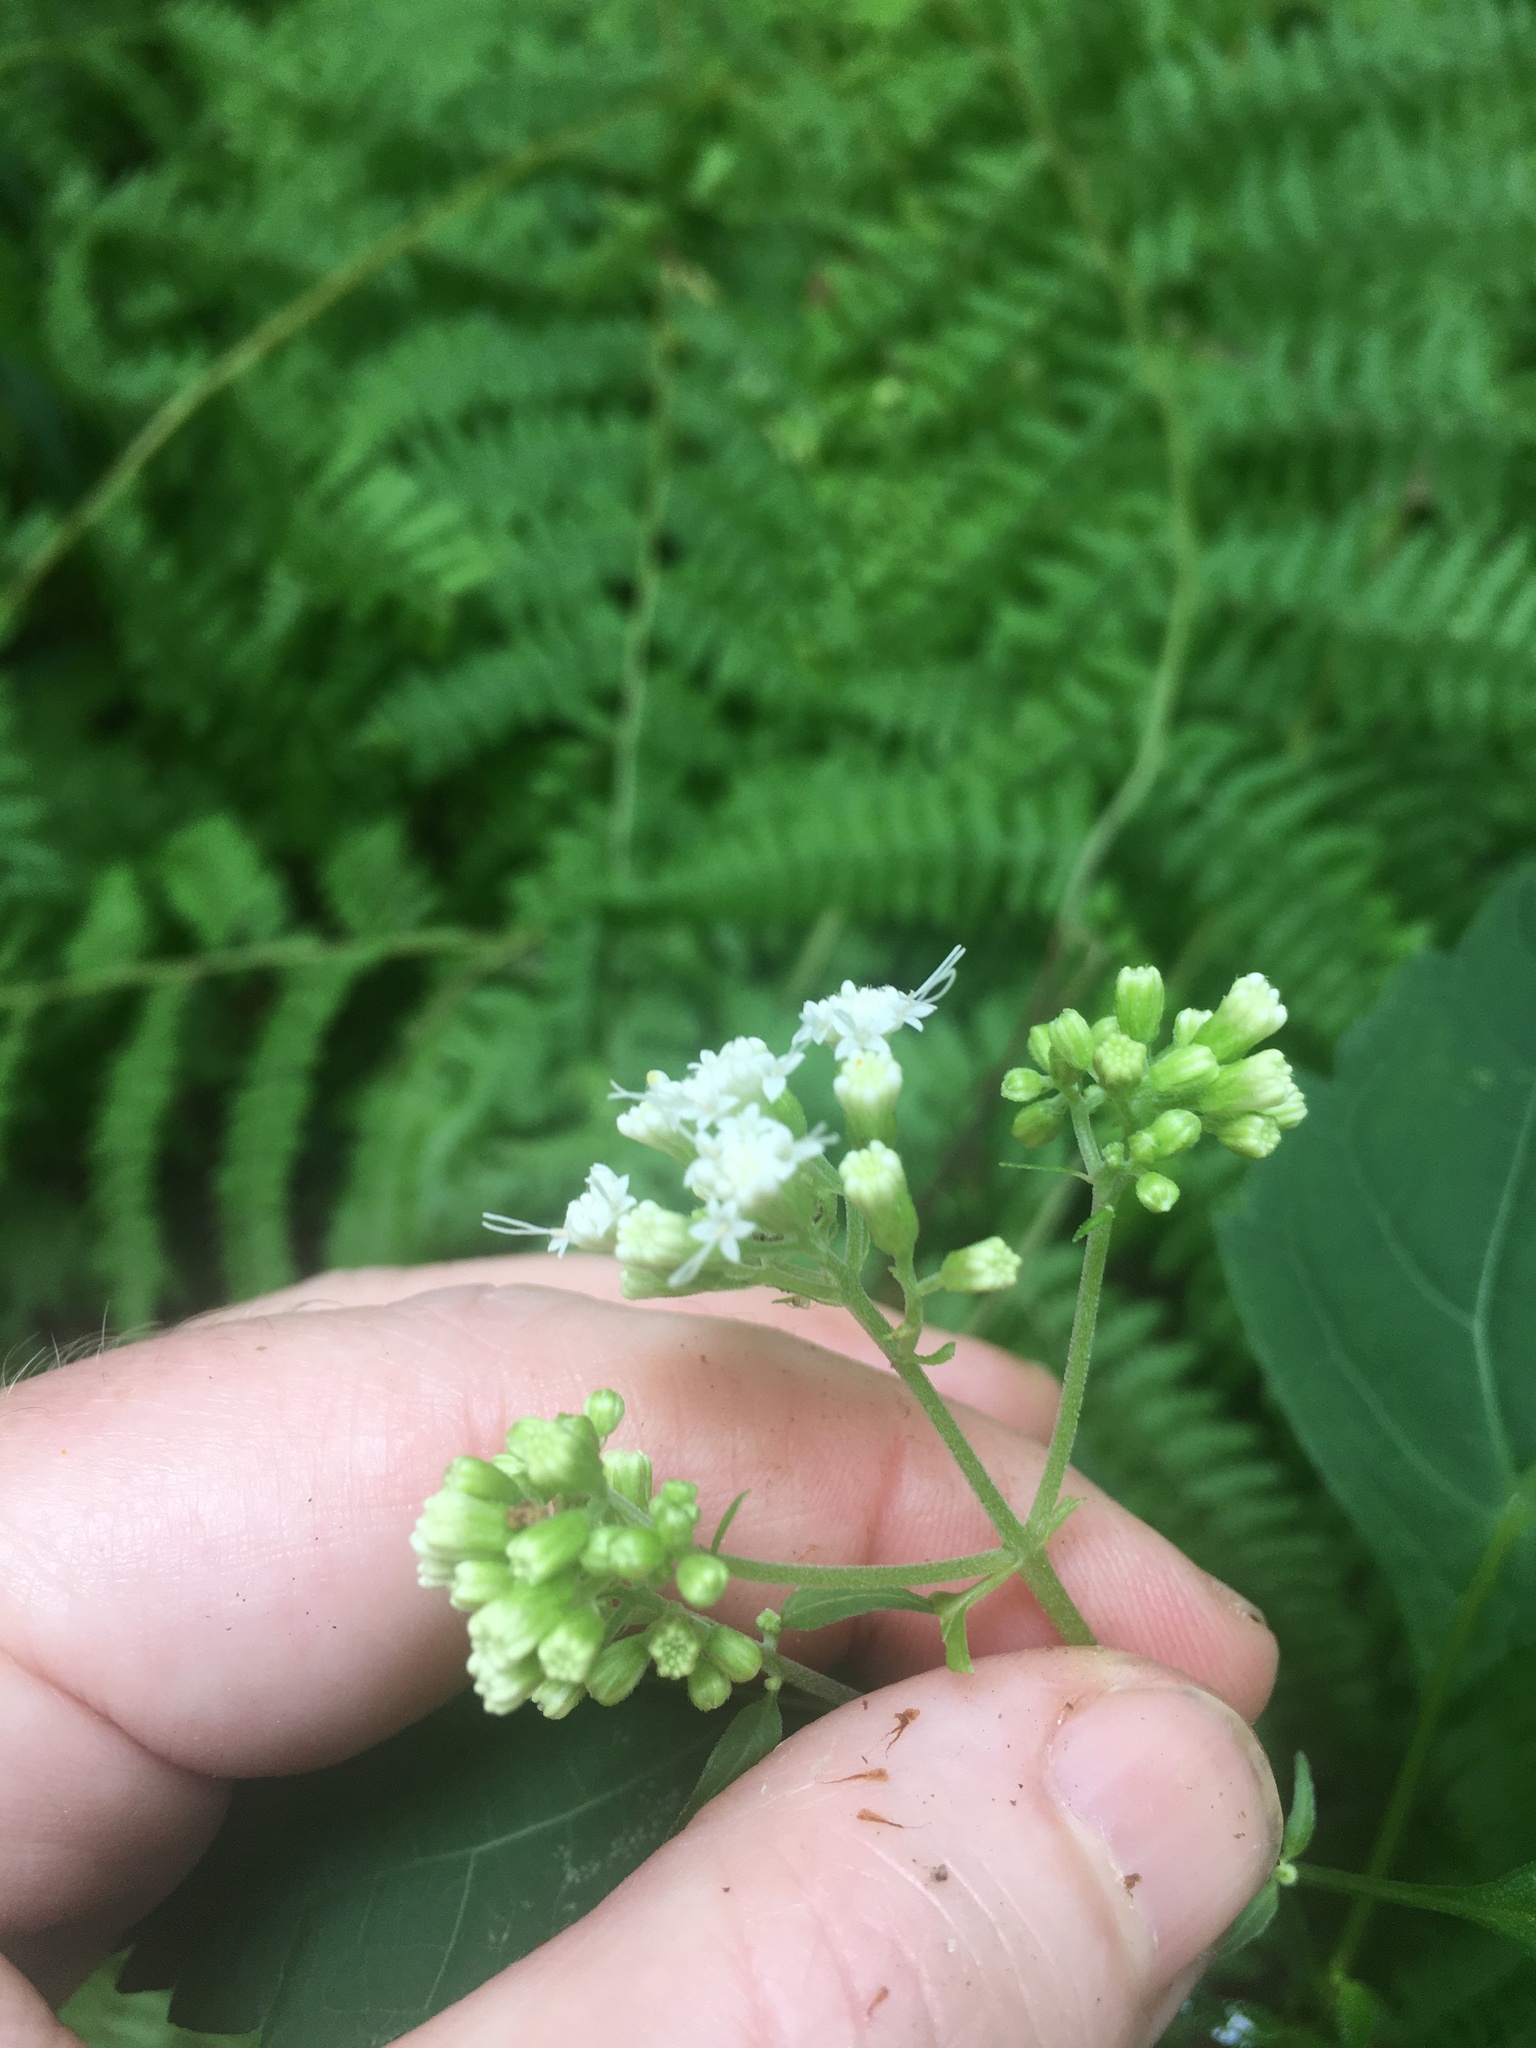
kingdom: Plantae
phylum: Tracheophyta
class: Magnoliopsida
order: Asterales
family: Asteraceae
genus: Ageratina
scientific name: Ageratina altissima
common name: White snakeroot
